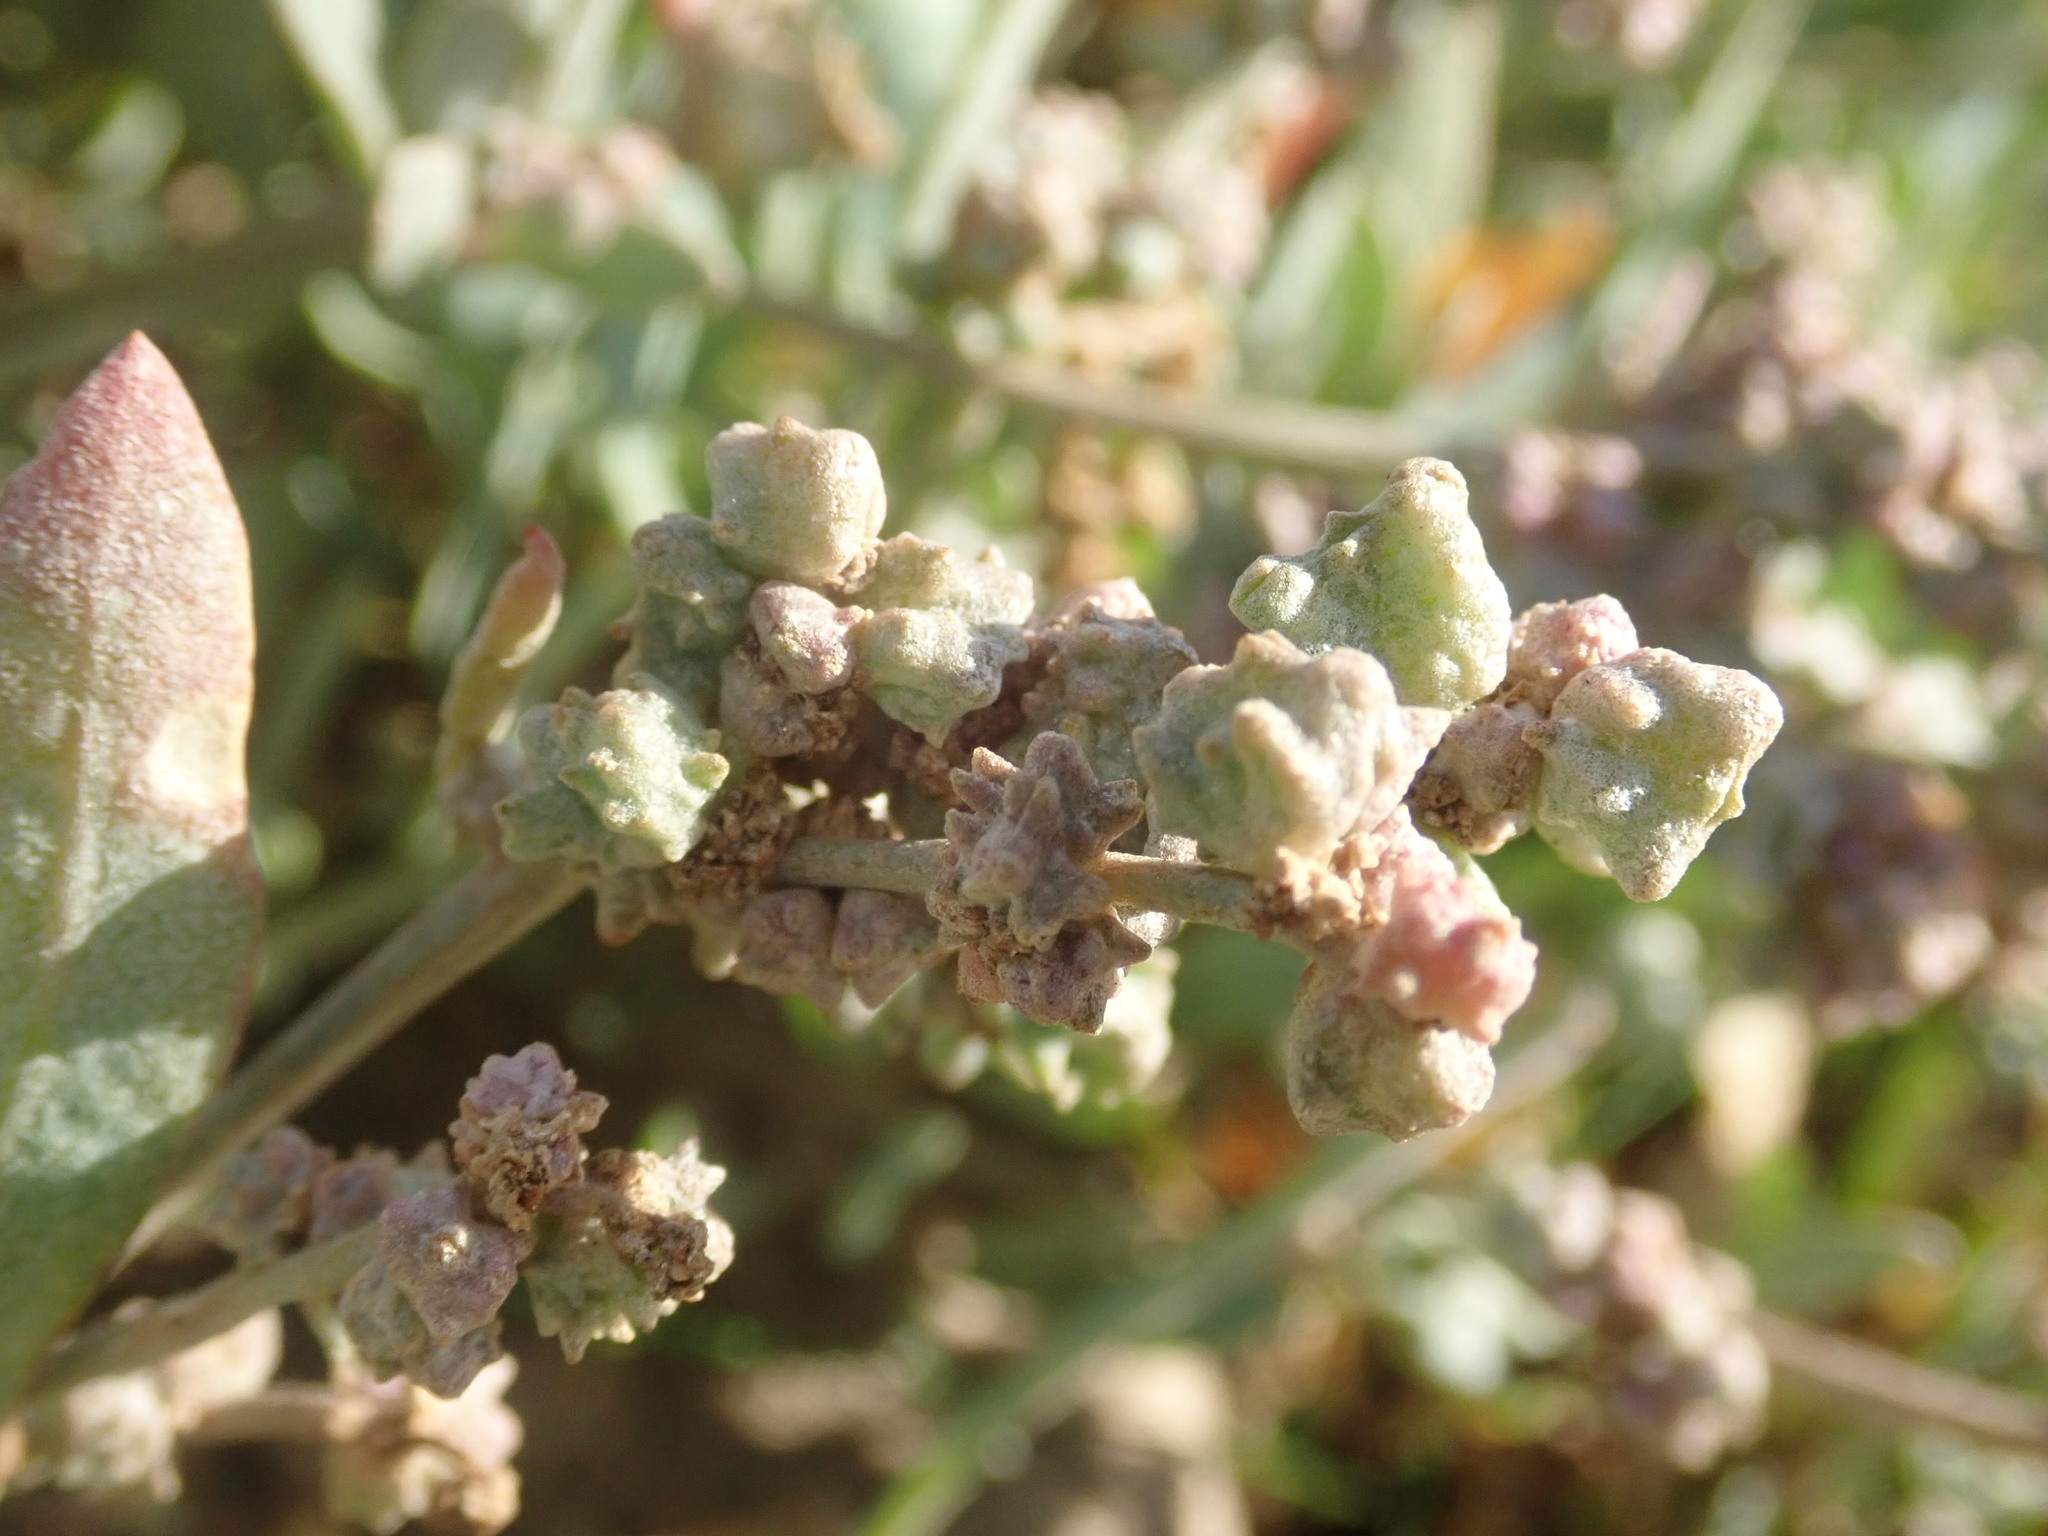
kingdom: Plantae
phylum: Tracheophyta
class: Magnoliopsida
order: Caryophyllales
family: Amaranthaceae
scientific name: Amaranthaceae
